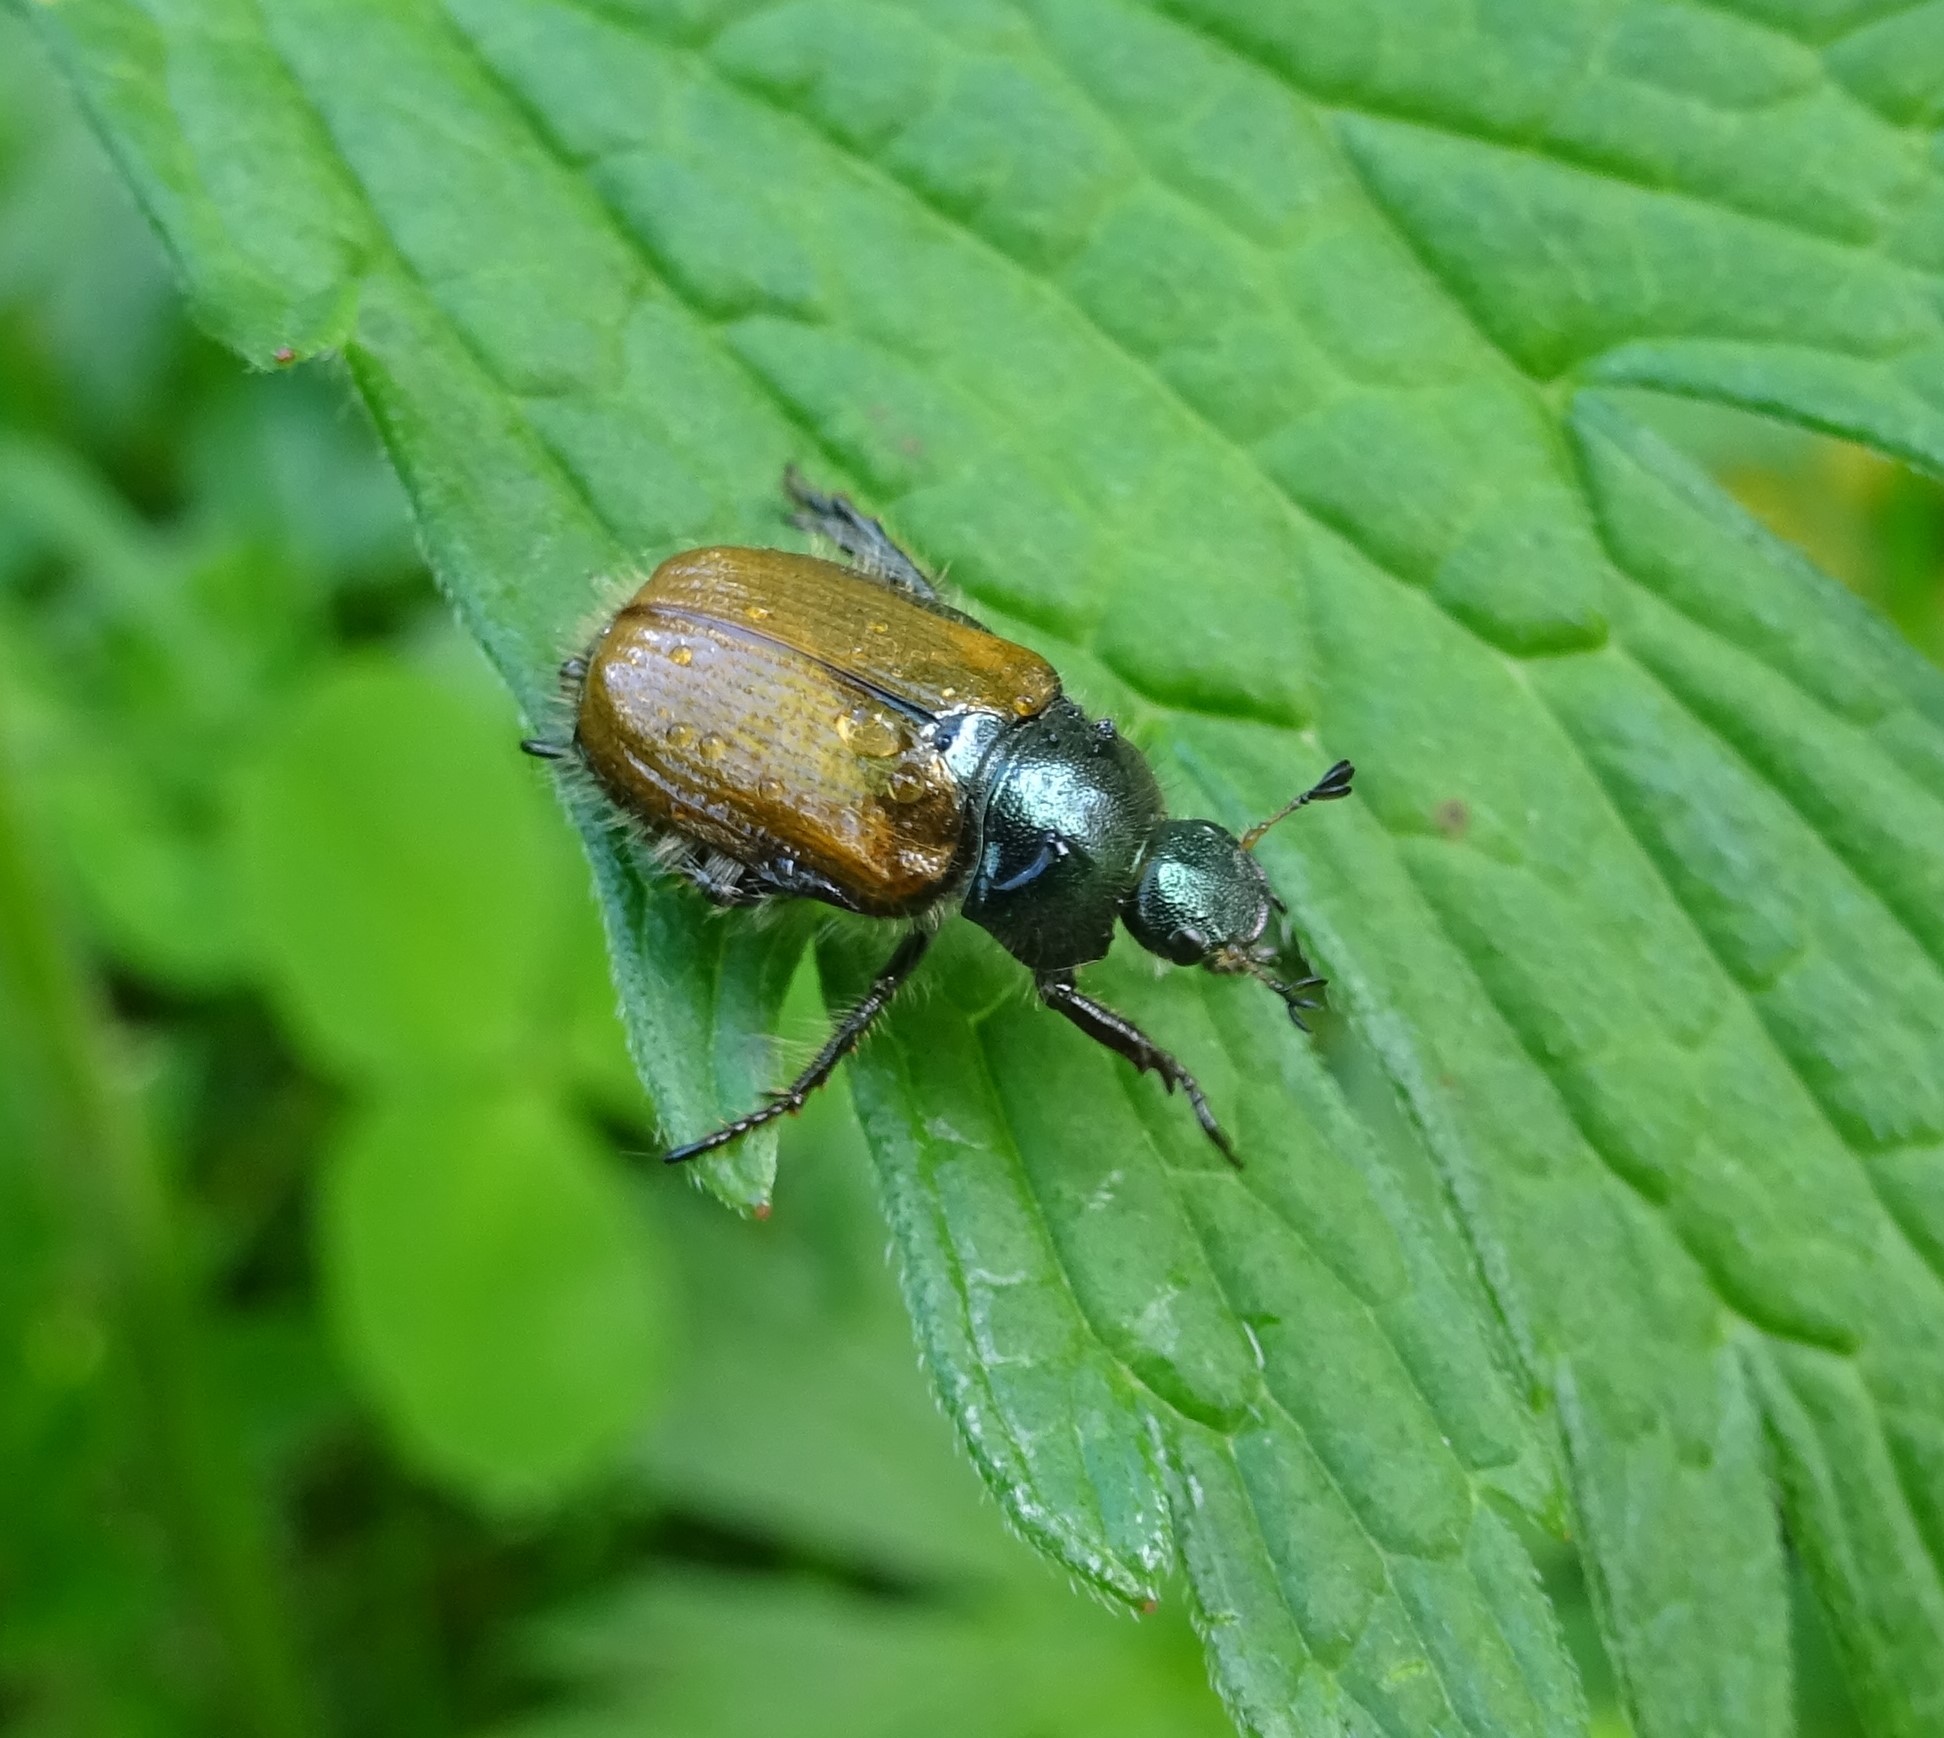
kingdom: Animalia
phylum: Arthropoda
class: Insecta
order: Coleoptera
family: Scarabaeidae
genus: Phyllopertha
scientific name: Phyllopertha horticola
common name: Garden chafer
